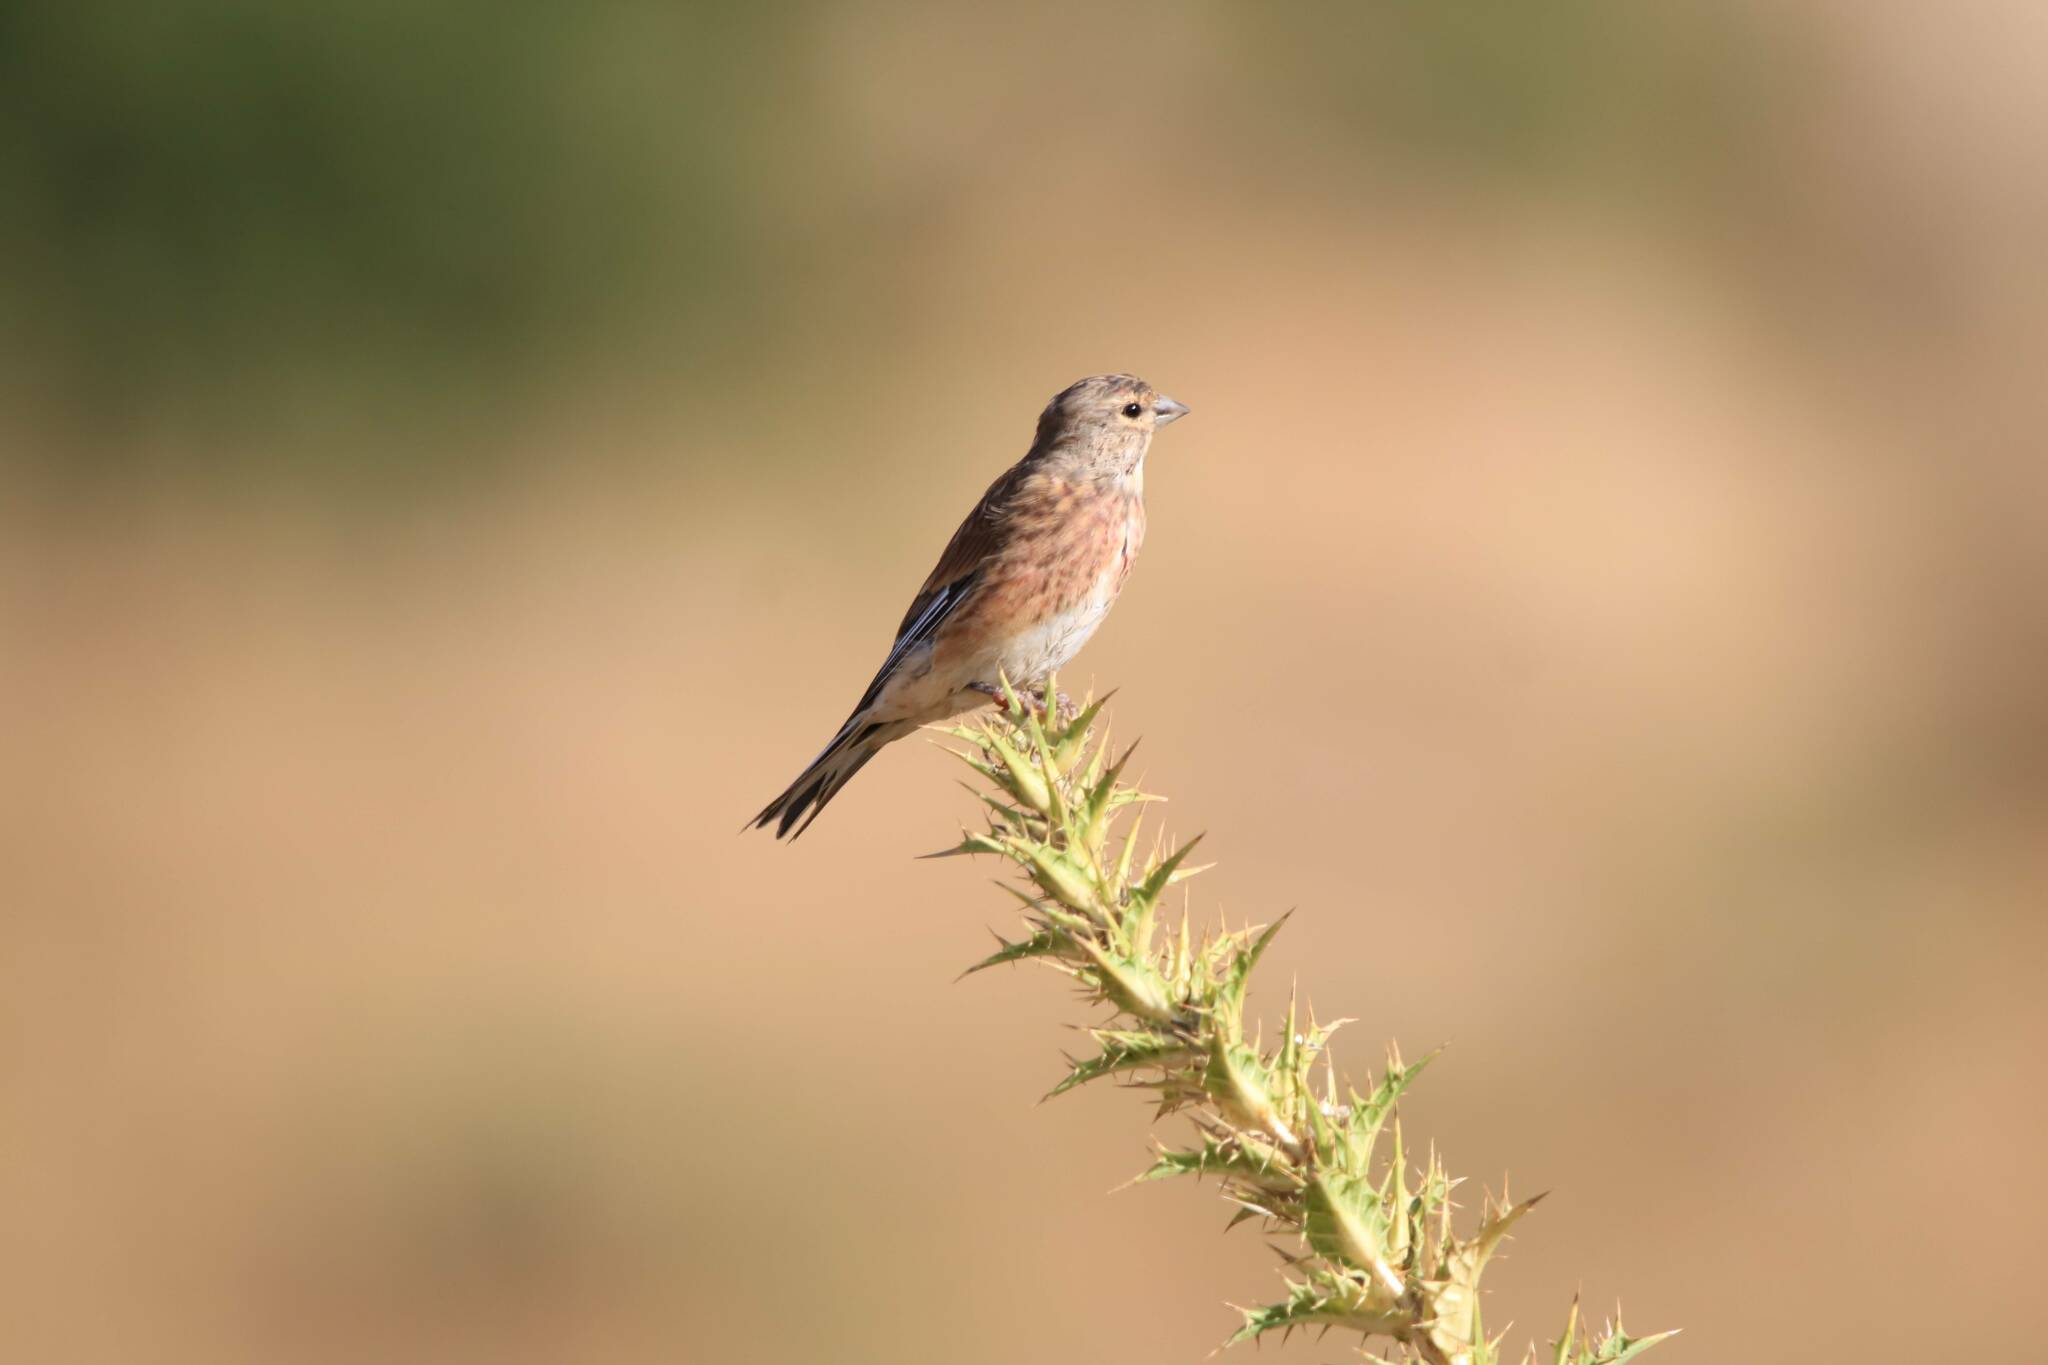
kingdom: Animalia
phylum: Chordata
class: Aves
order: Passeriformes
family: Fringillidae
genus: Linaria
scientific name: Linaria cannabina
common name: Common linnet
